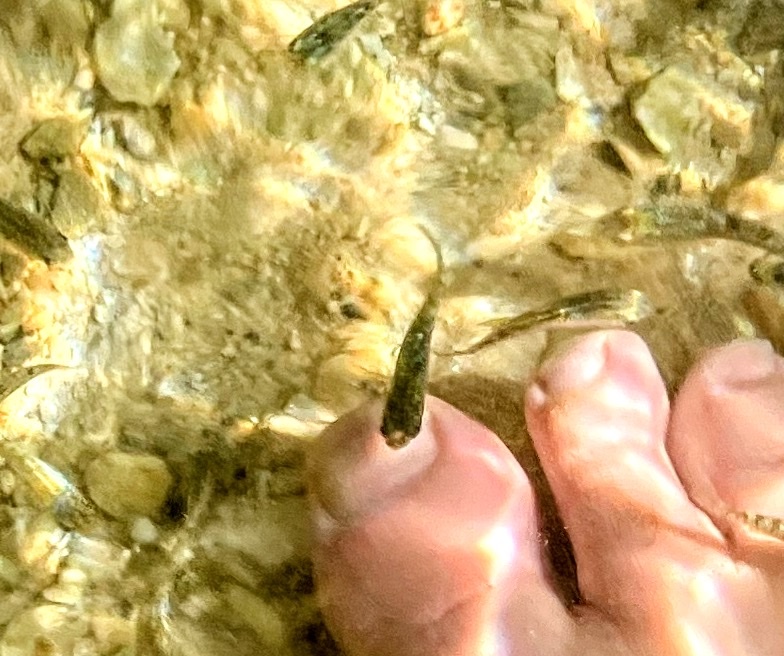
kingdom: Animalia
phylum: Chordata
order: Cyprinodontiformes
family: Cyprinodontidae
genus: Aphanius
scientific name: Aphanius dispar
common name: Arabian toothcarp
